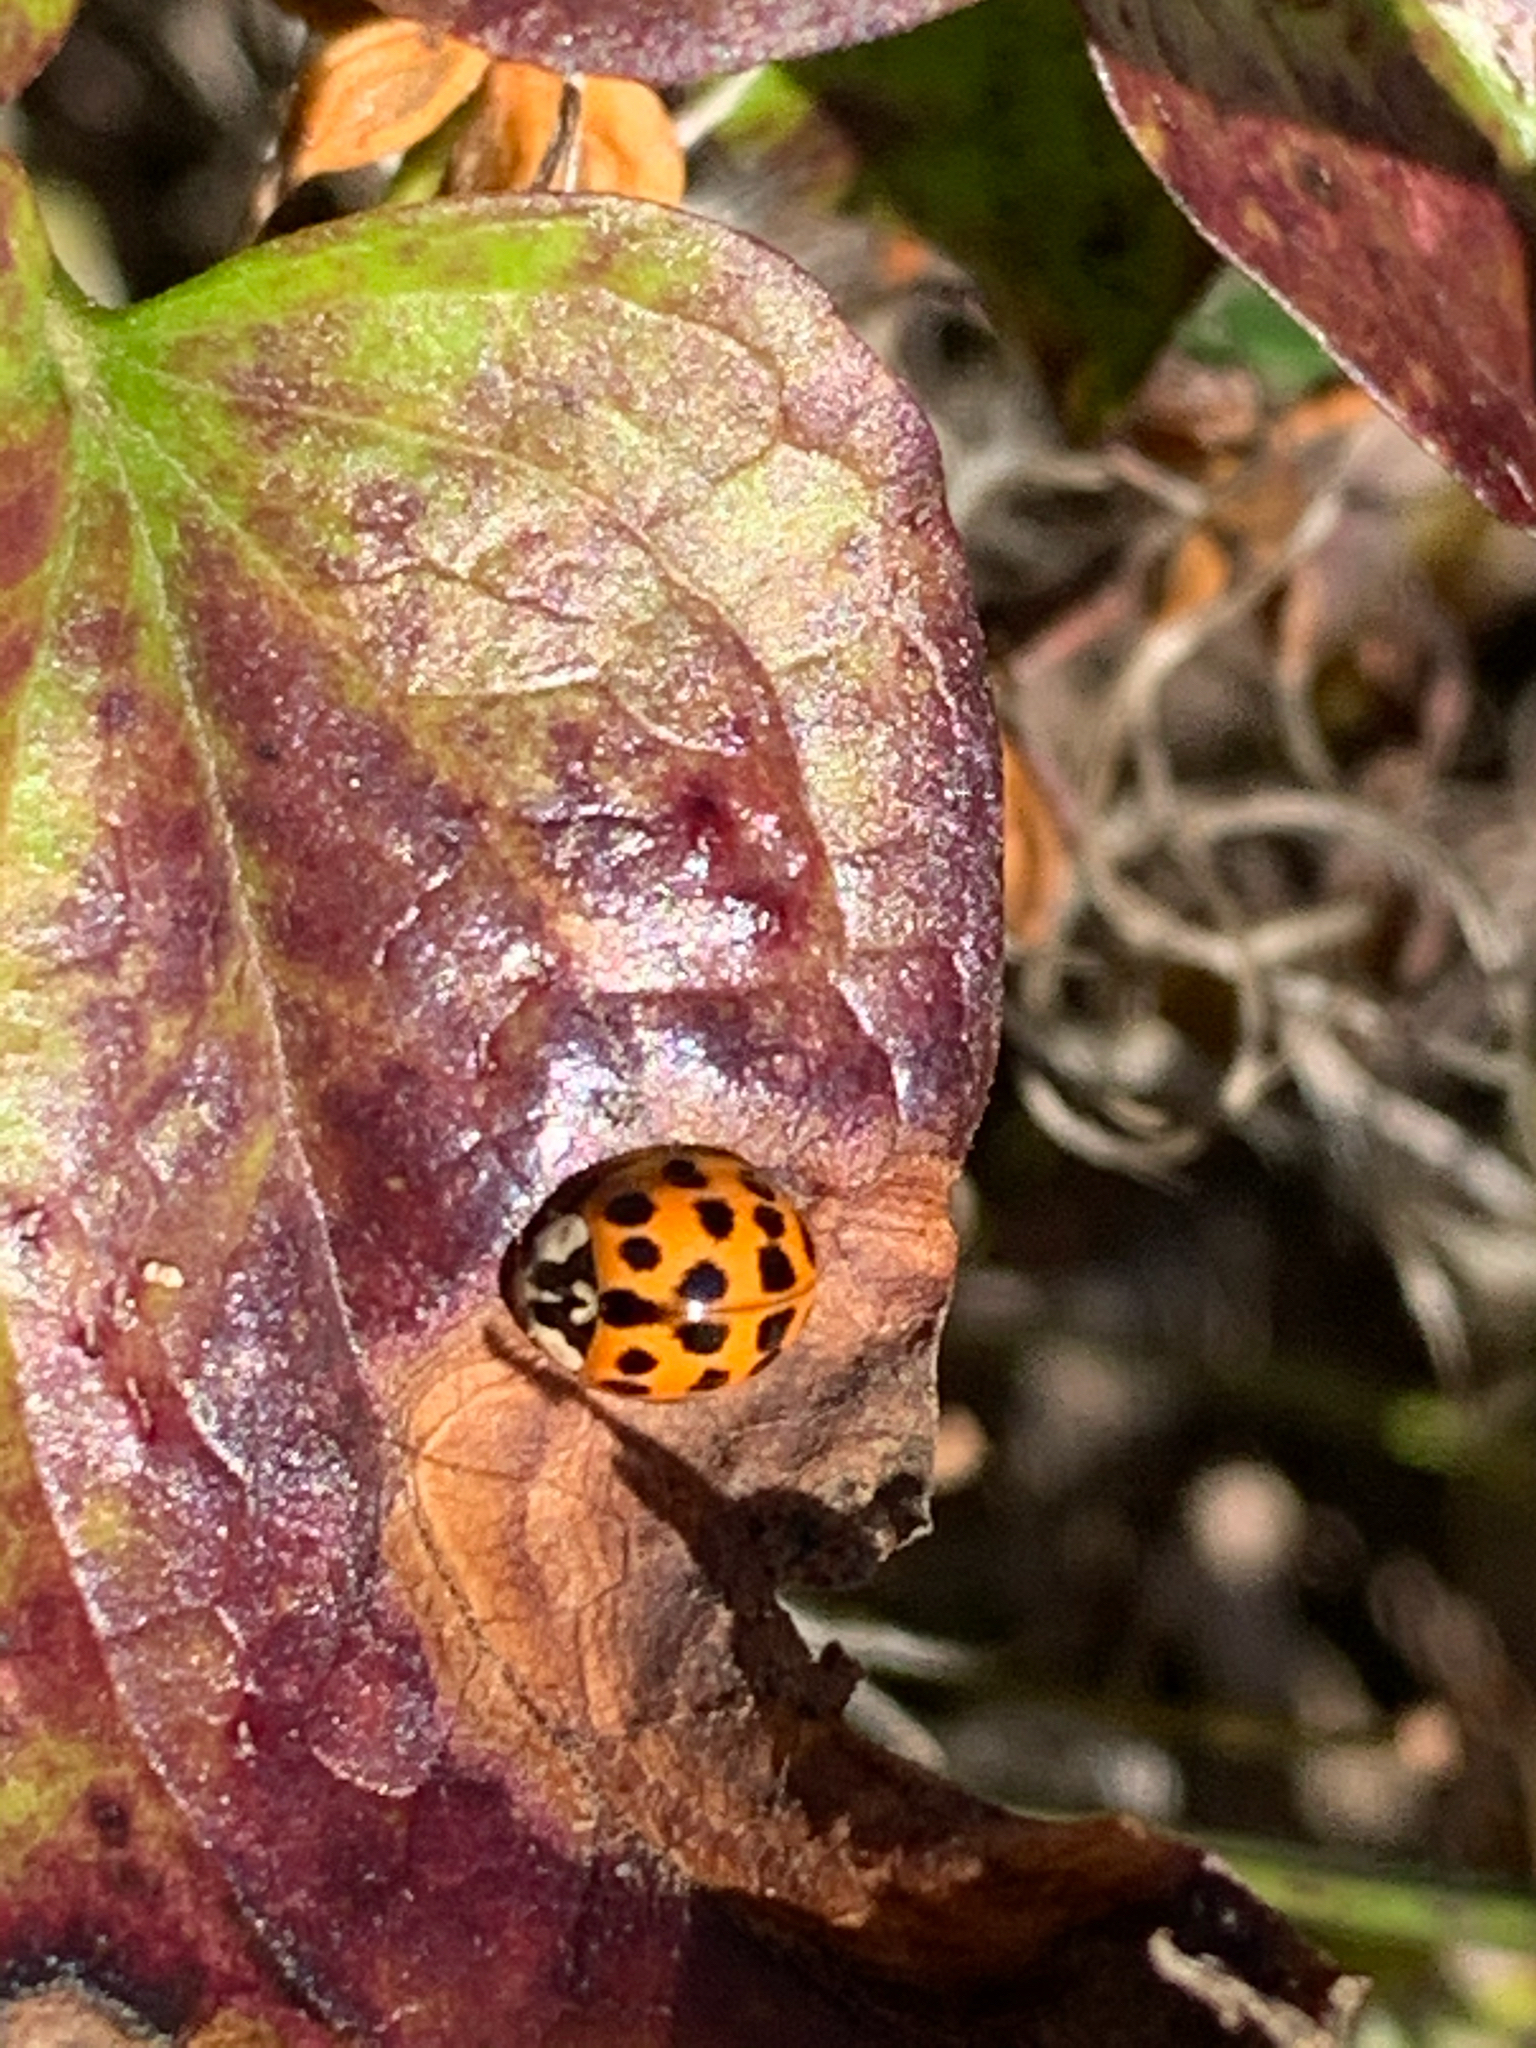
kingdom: Animalia
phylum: Arthropoda
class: Insecta
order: Coleoptera
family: Coccinellidae
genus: Harmonia
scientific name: Harmonia axyridis
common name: Harlequin ladybird
